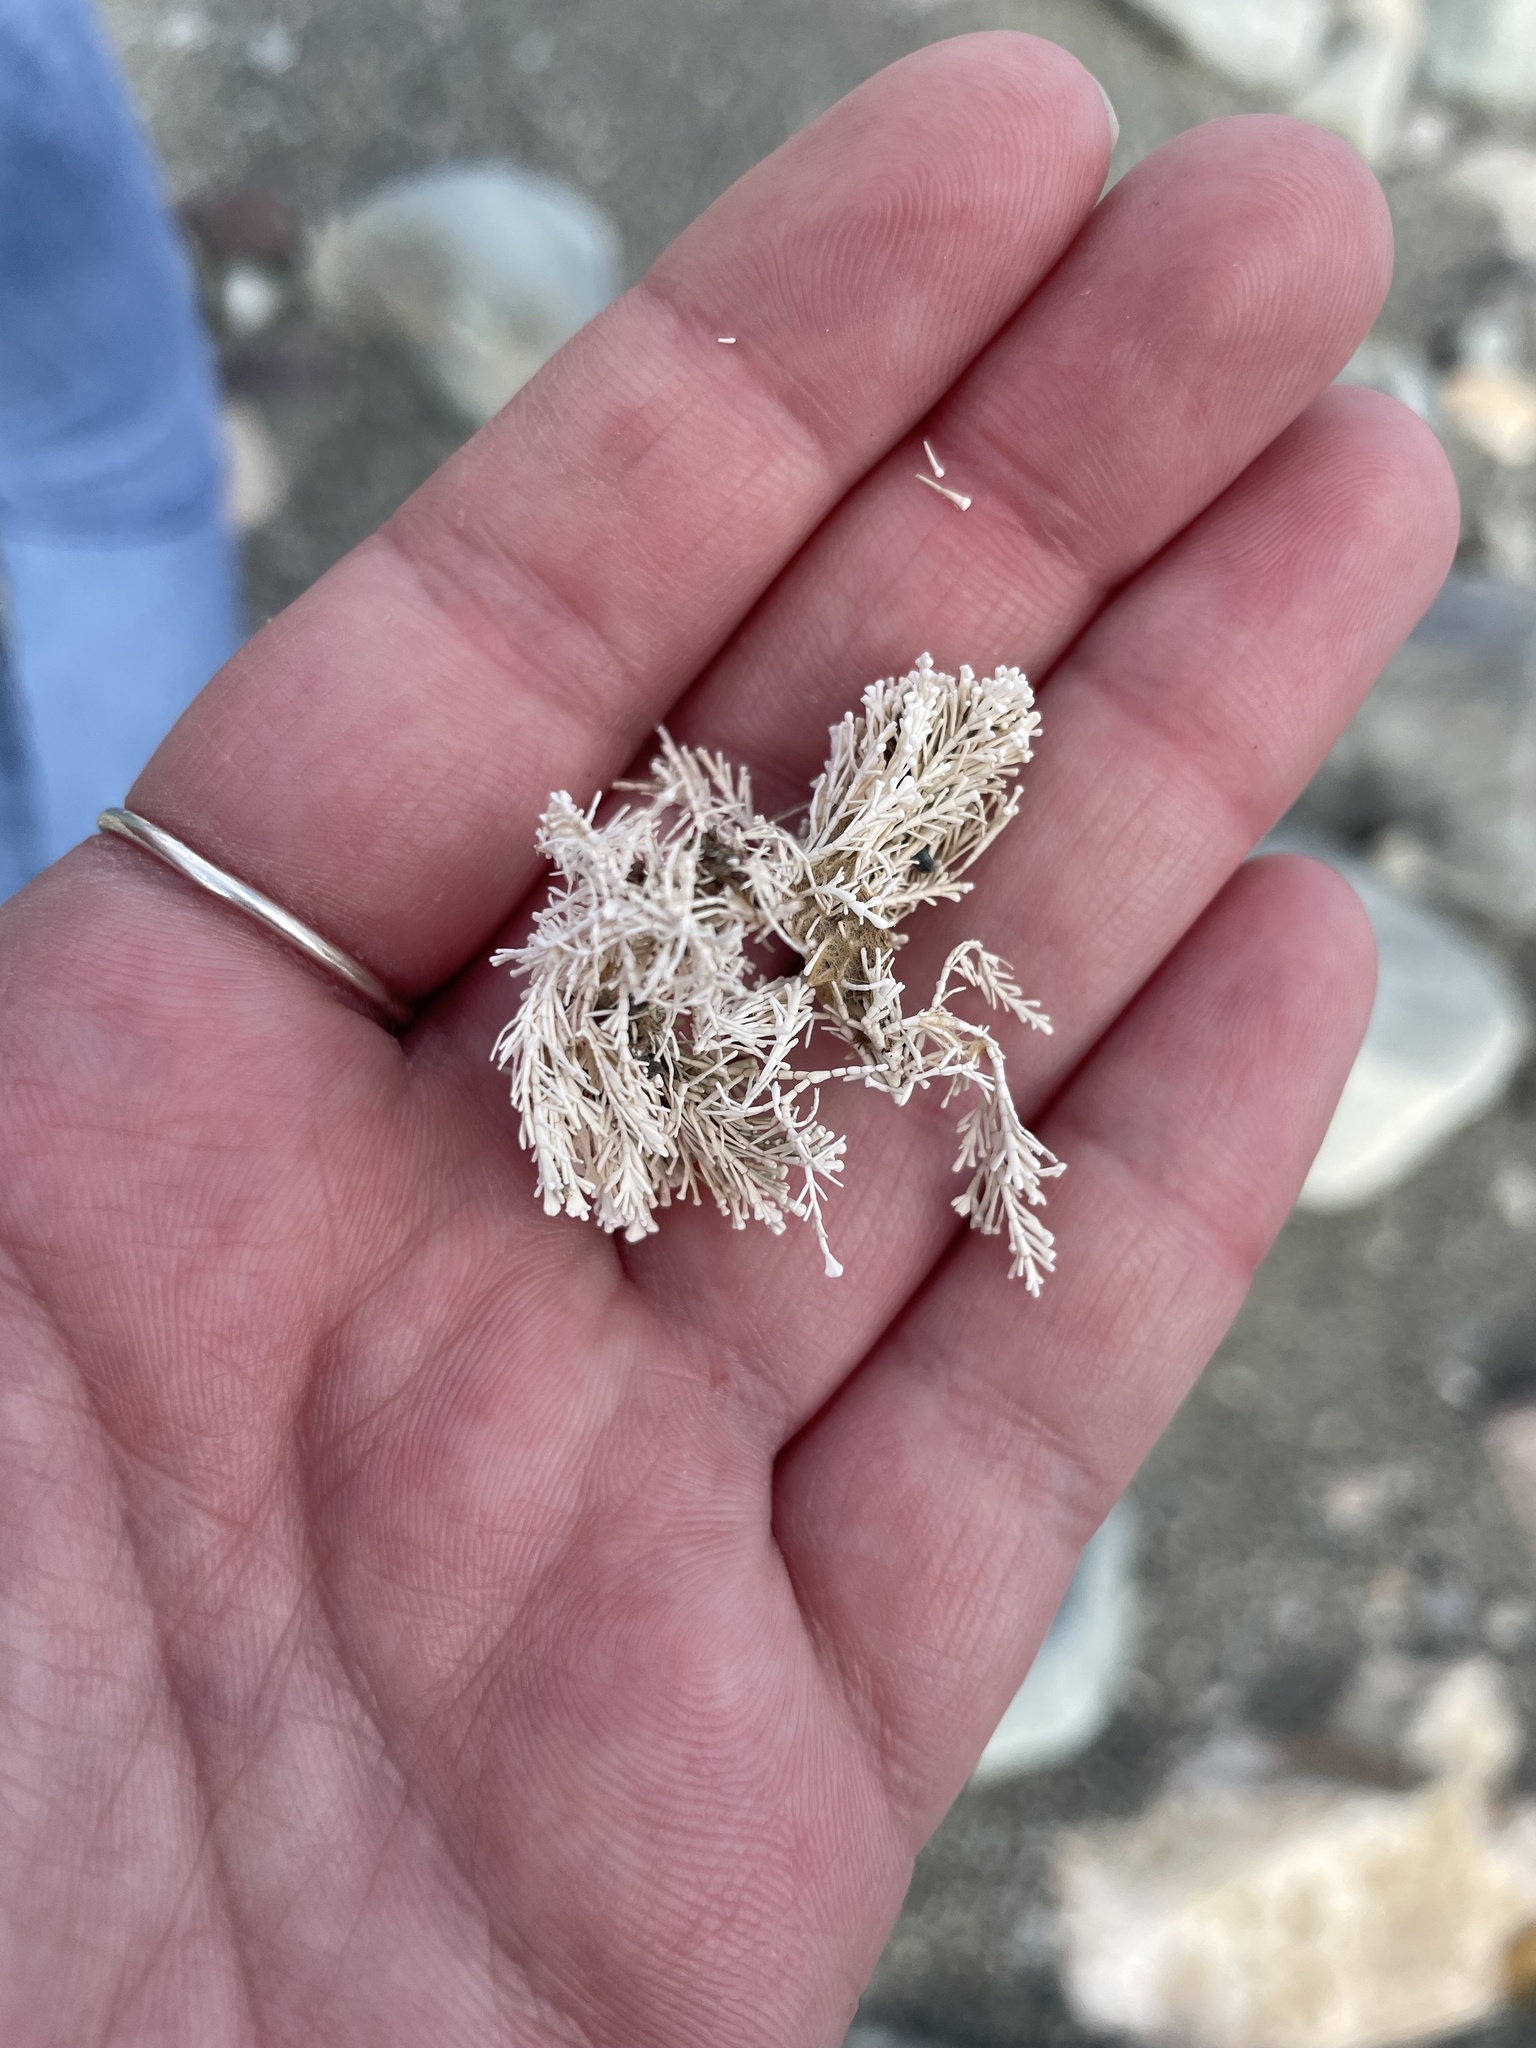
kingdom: Plantae
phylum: Rhodophyta
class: Florideophyceae
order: Corallinales
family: Corallinaceae
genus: Corallina
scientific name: Corallina officinalis
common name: Coral weed
